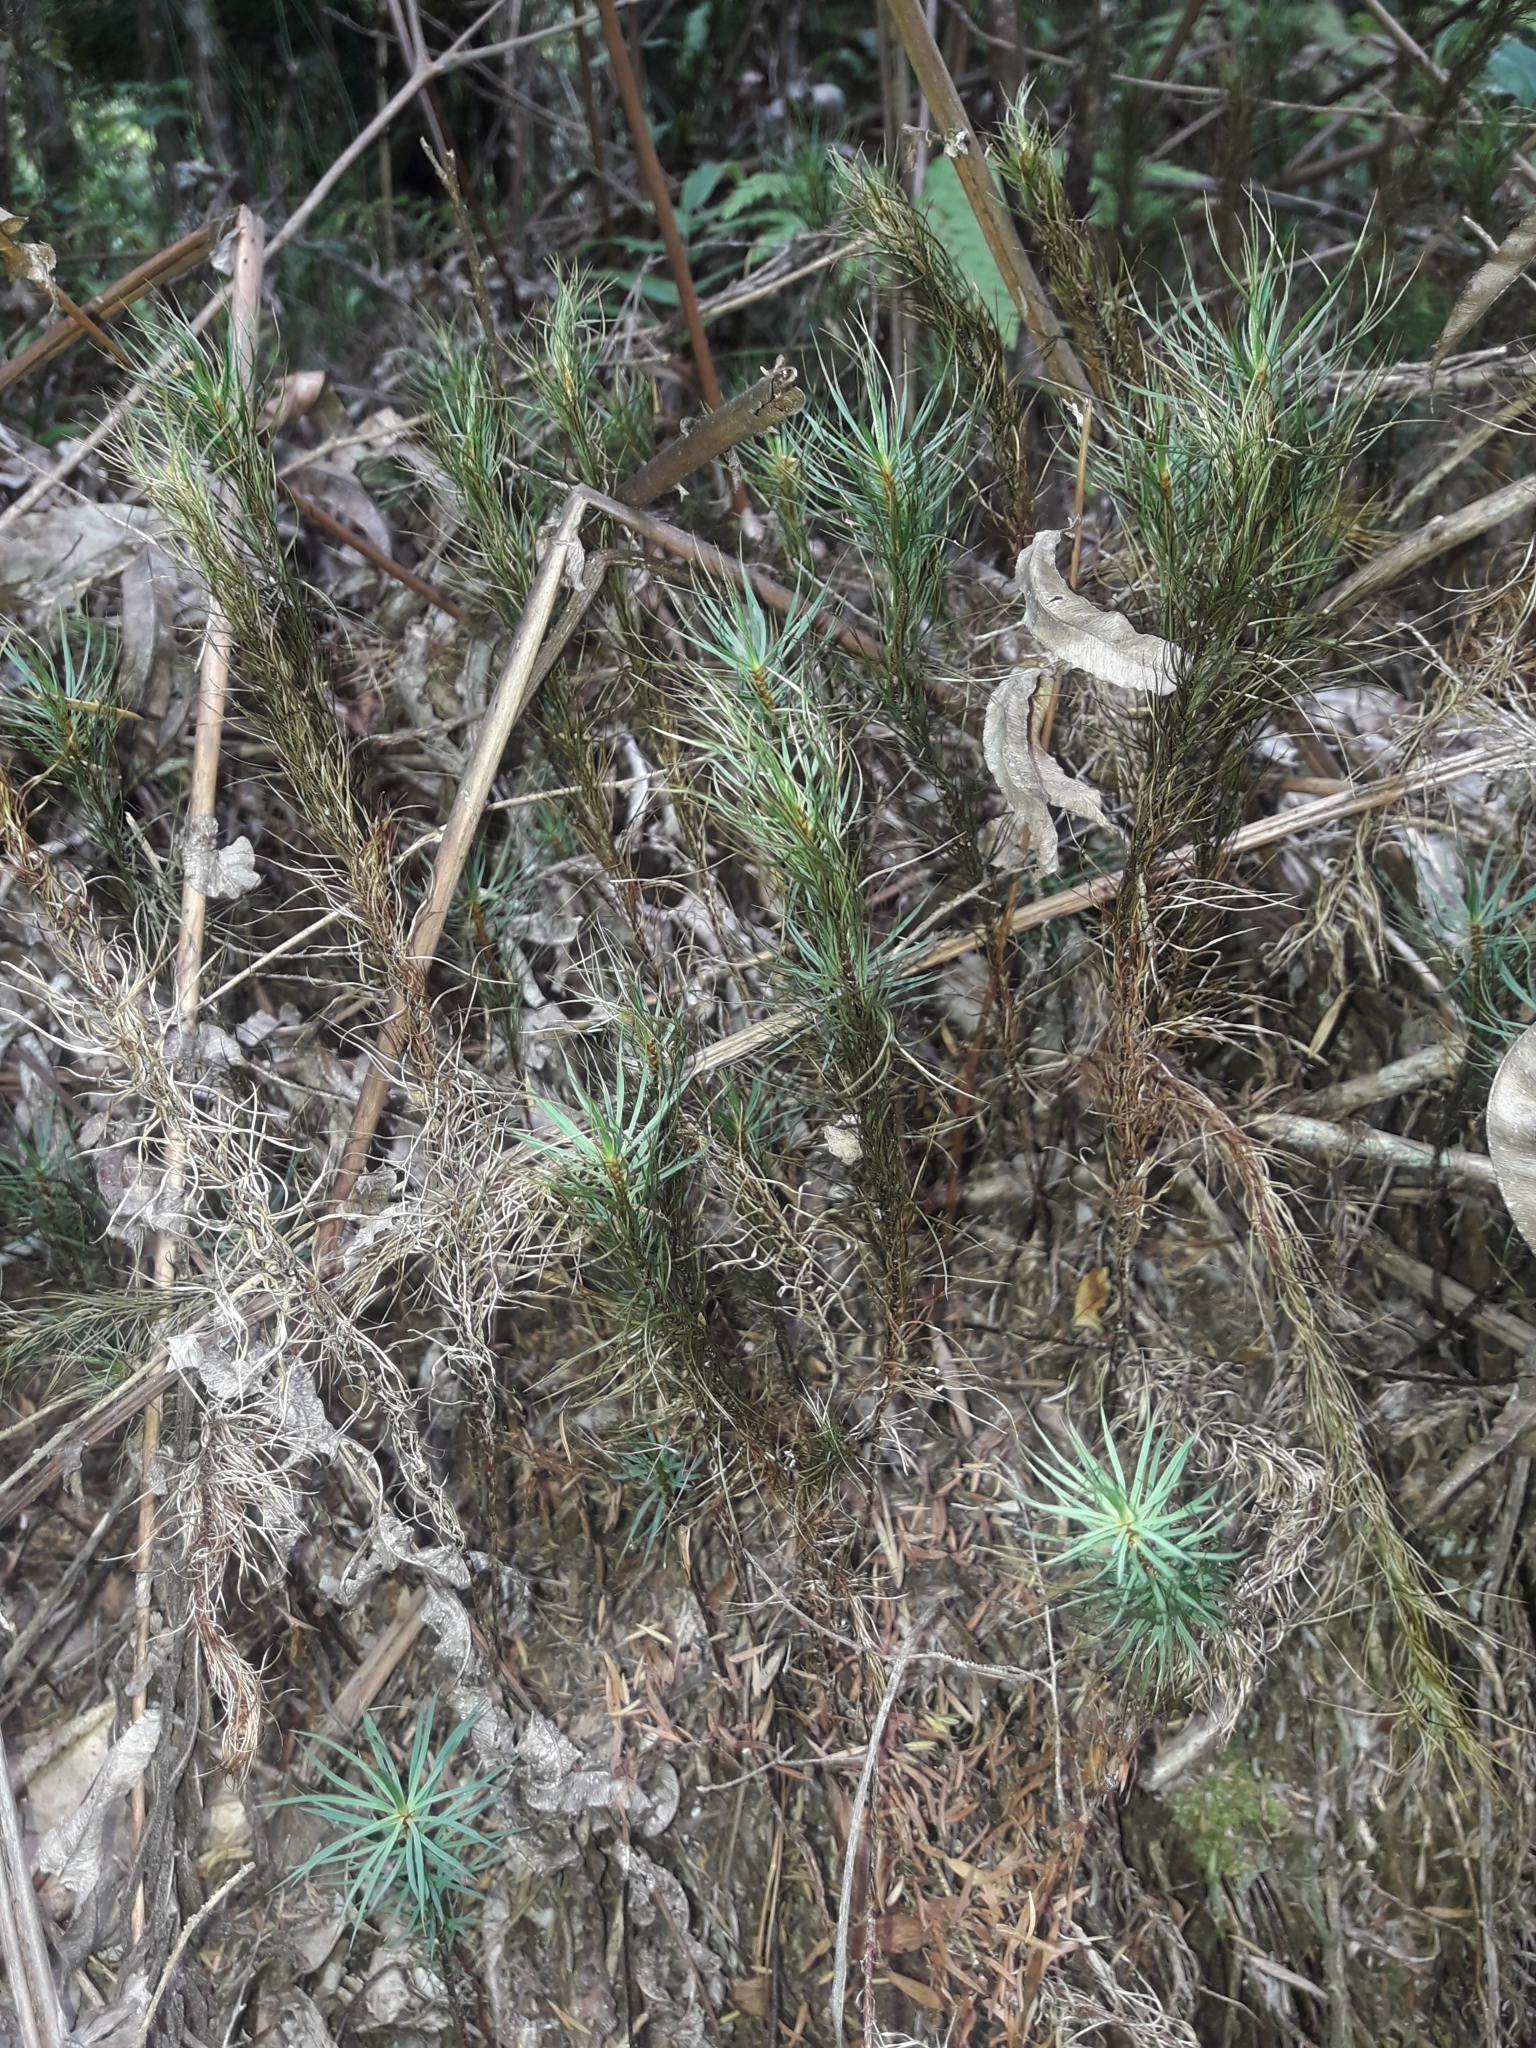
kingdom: Plantae
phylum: Bryophyta
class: Polytrichopsida
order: Polytrichales
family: Polytrichaceae
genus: Dawsonia
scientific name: Dawsonia superba
